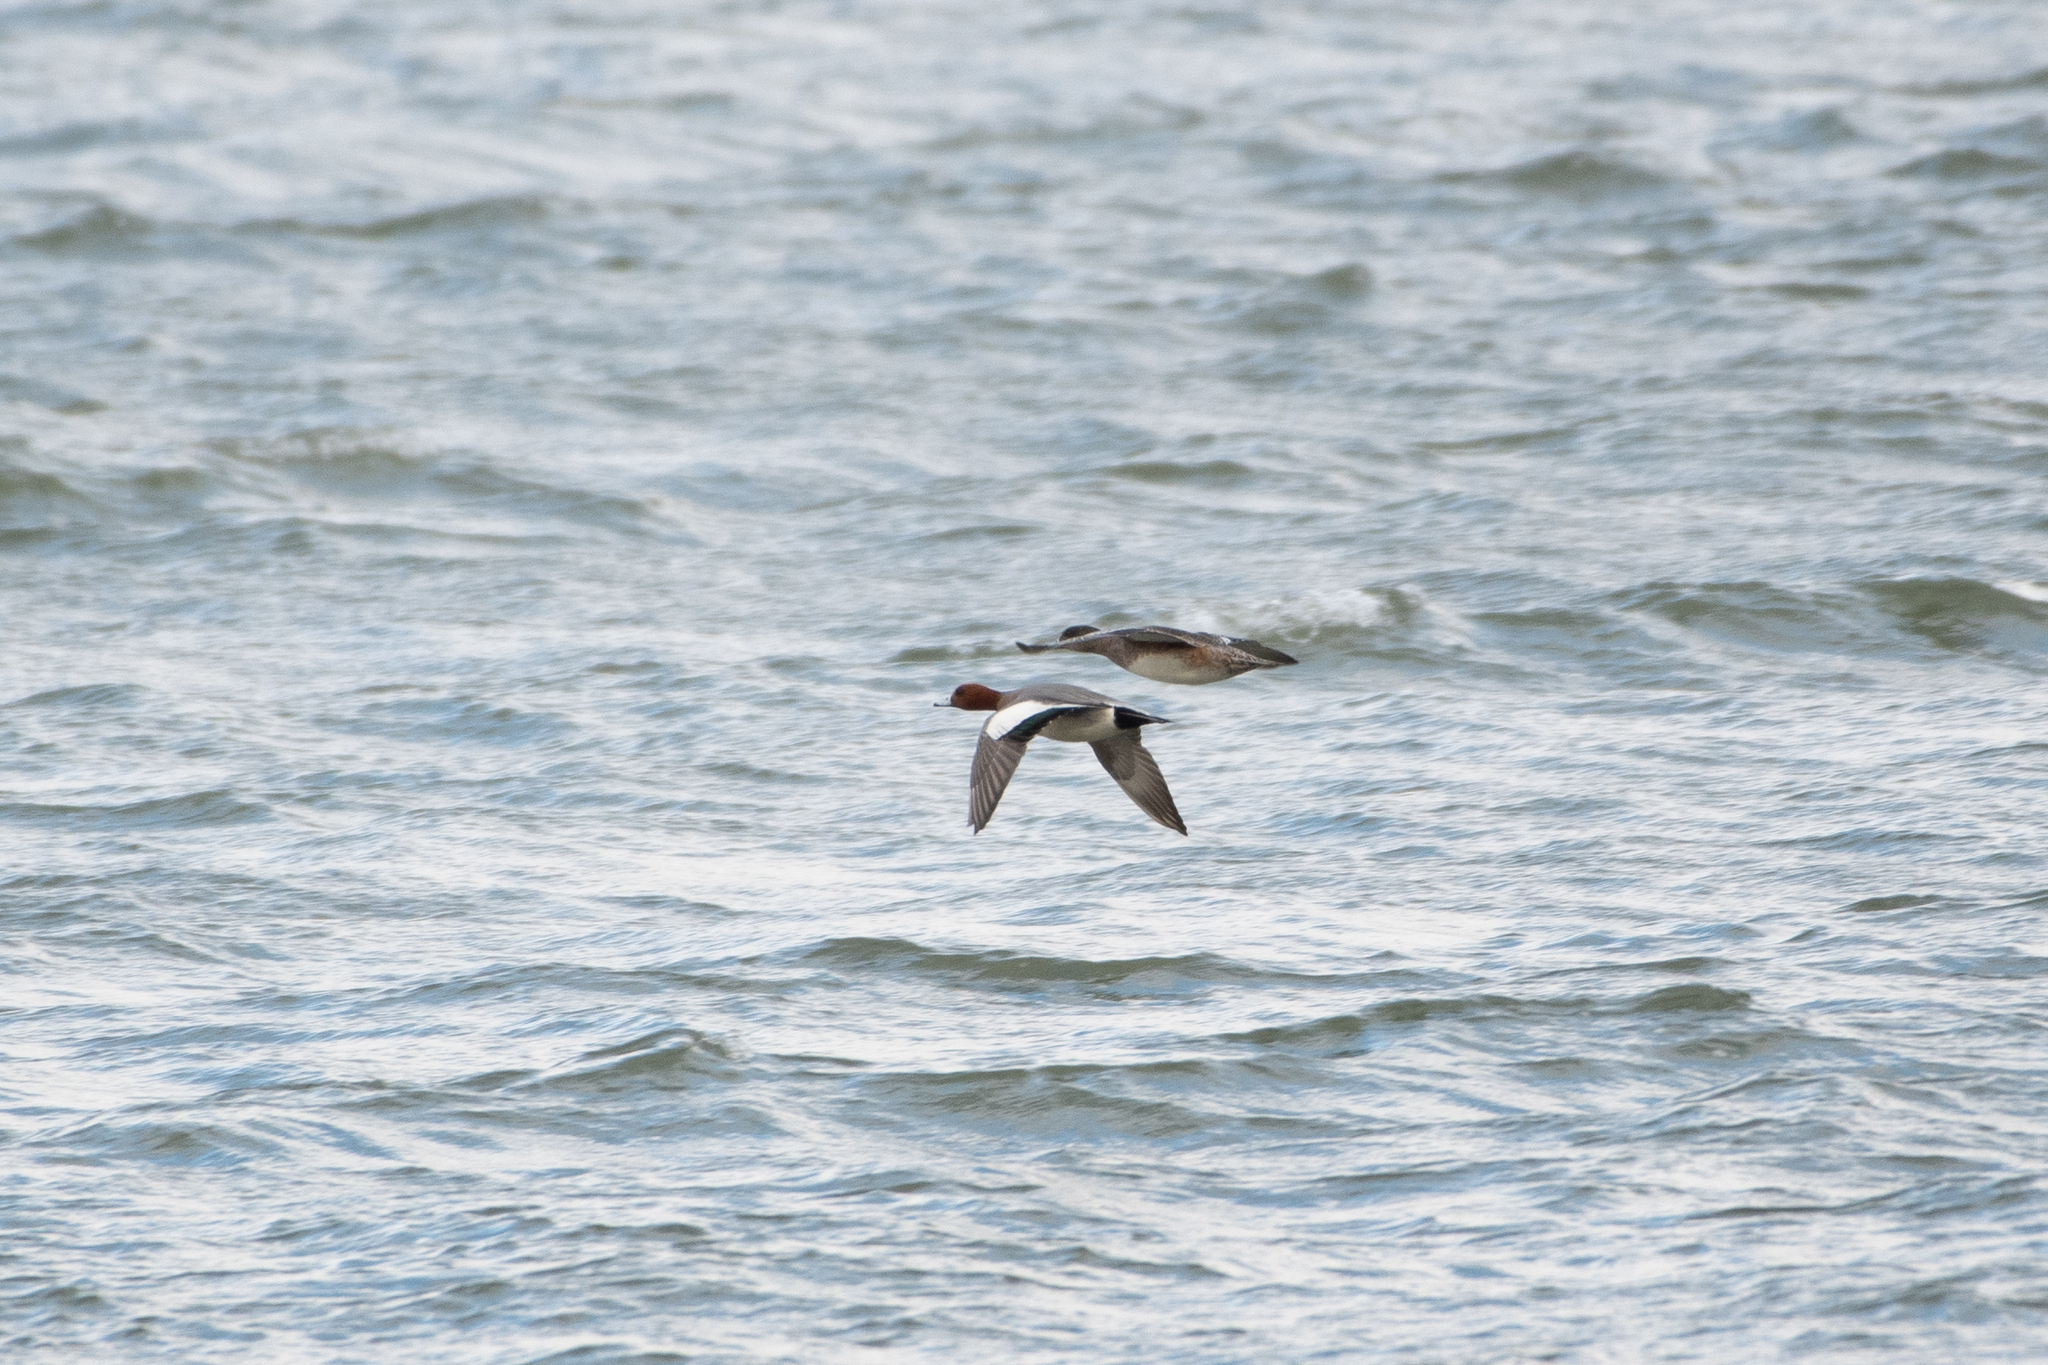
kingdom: Animalia
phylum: Chordata
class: Aves
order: Anseriformes
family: Anatidae
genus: Mareca
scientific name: Mareca penelope
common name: Eurasian wigeon
